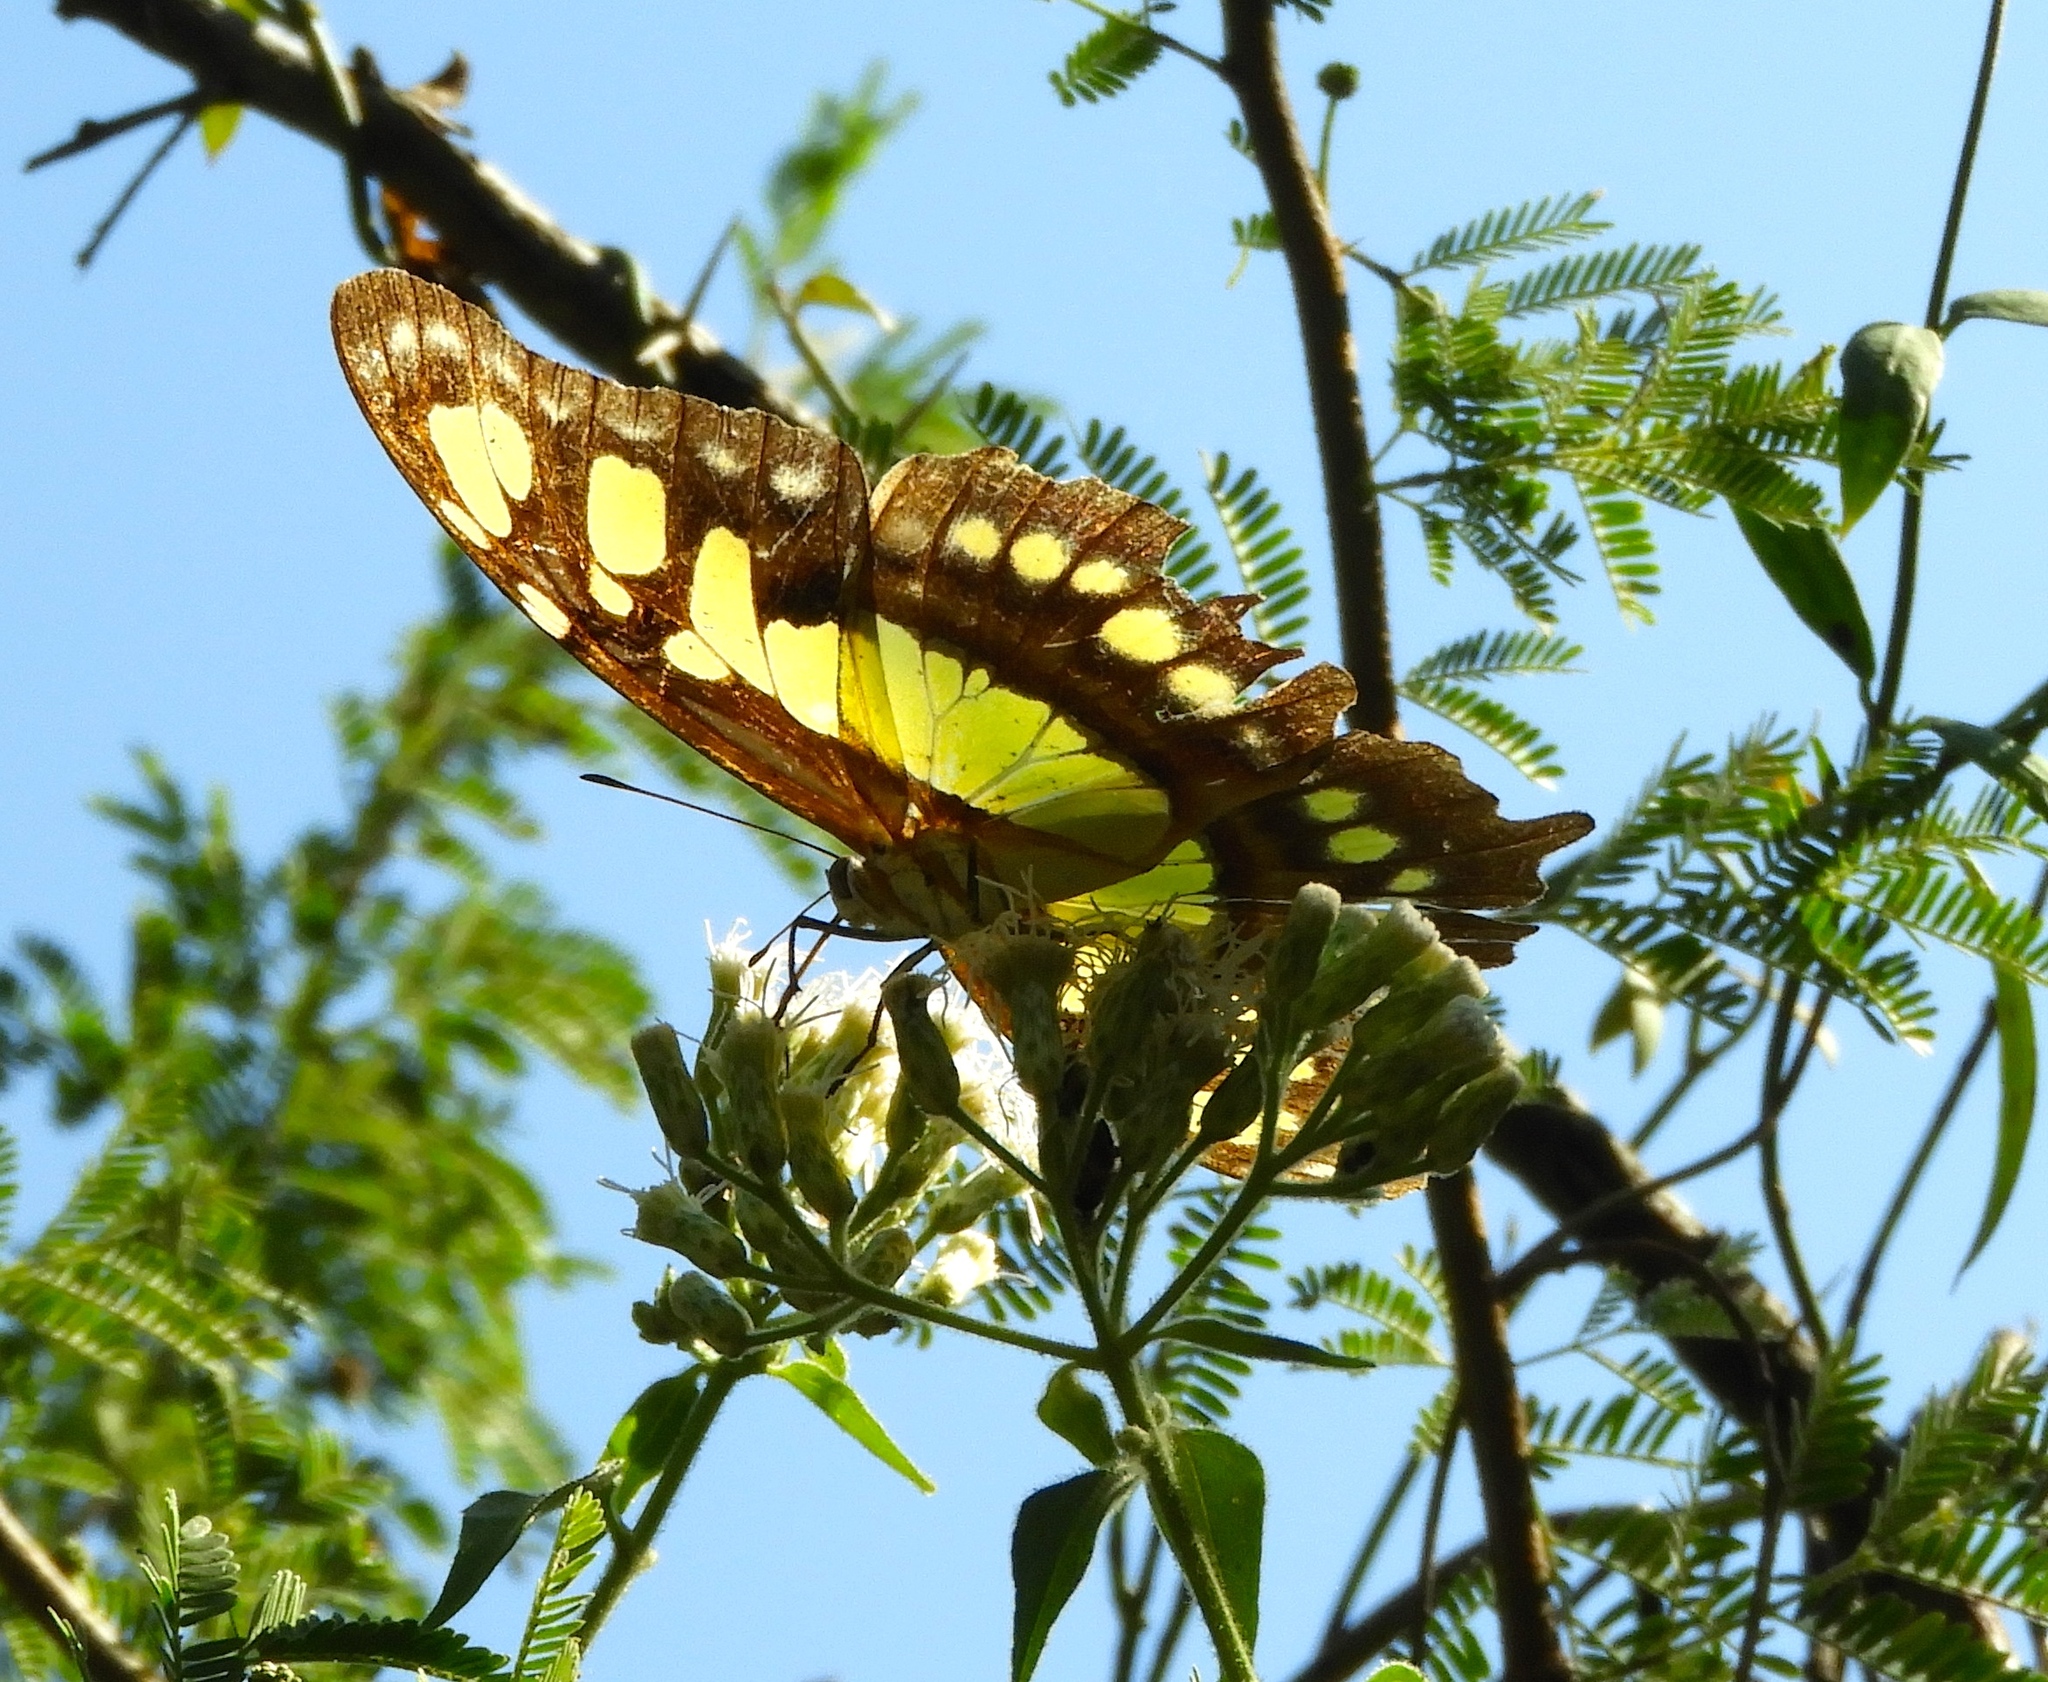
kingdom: Animalia
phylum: Arthropoda
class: Insecta
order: Lepidoptera
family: Nymphalidae
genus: Siproeta
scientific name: Siproeta stelenes
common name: Malachite
